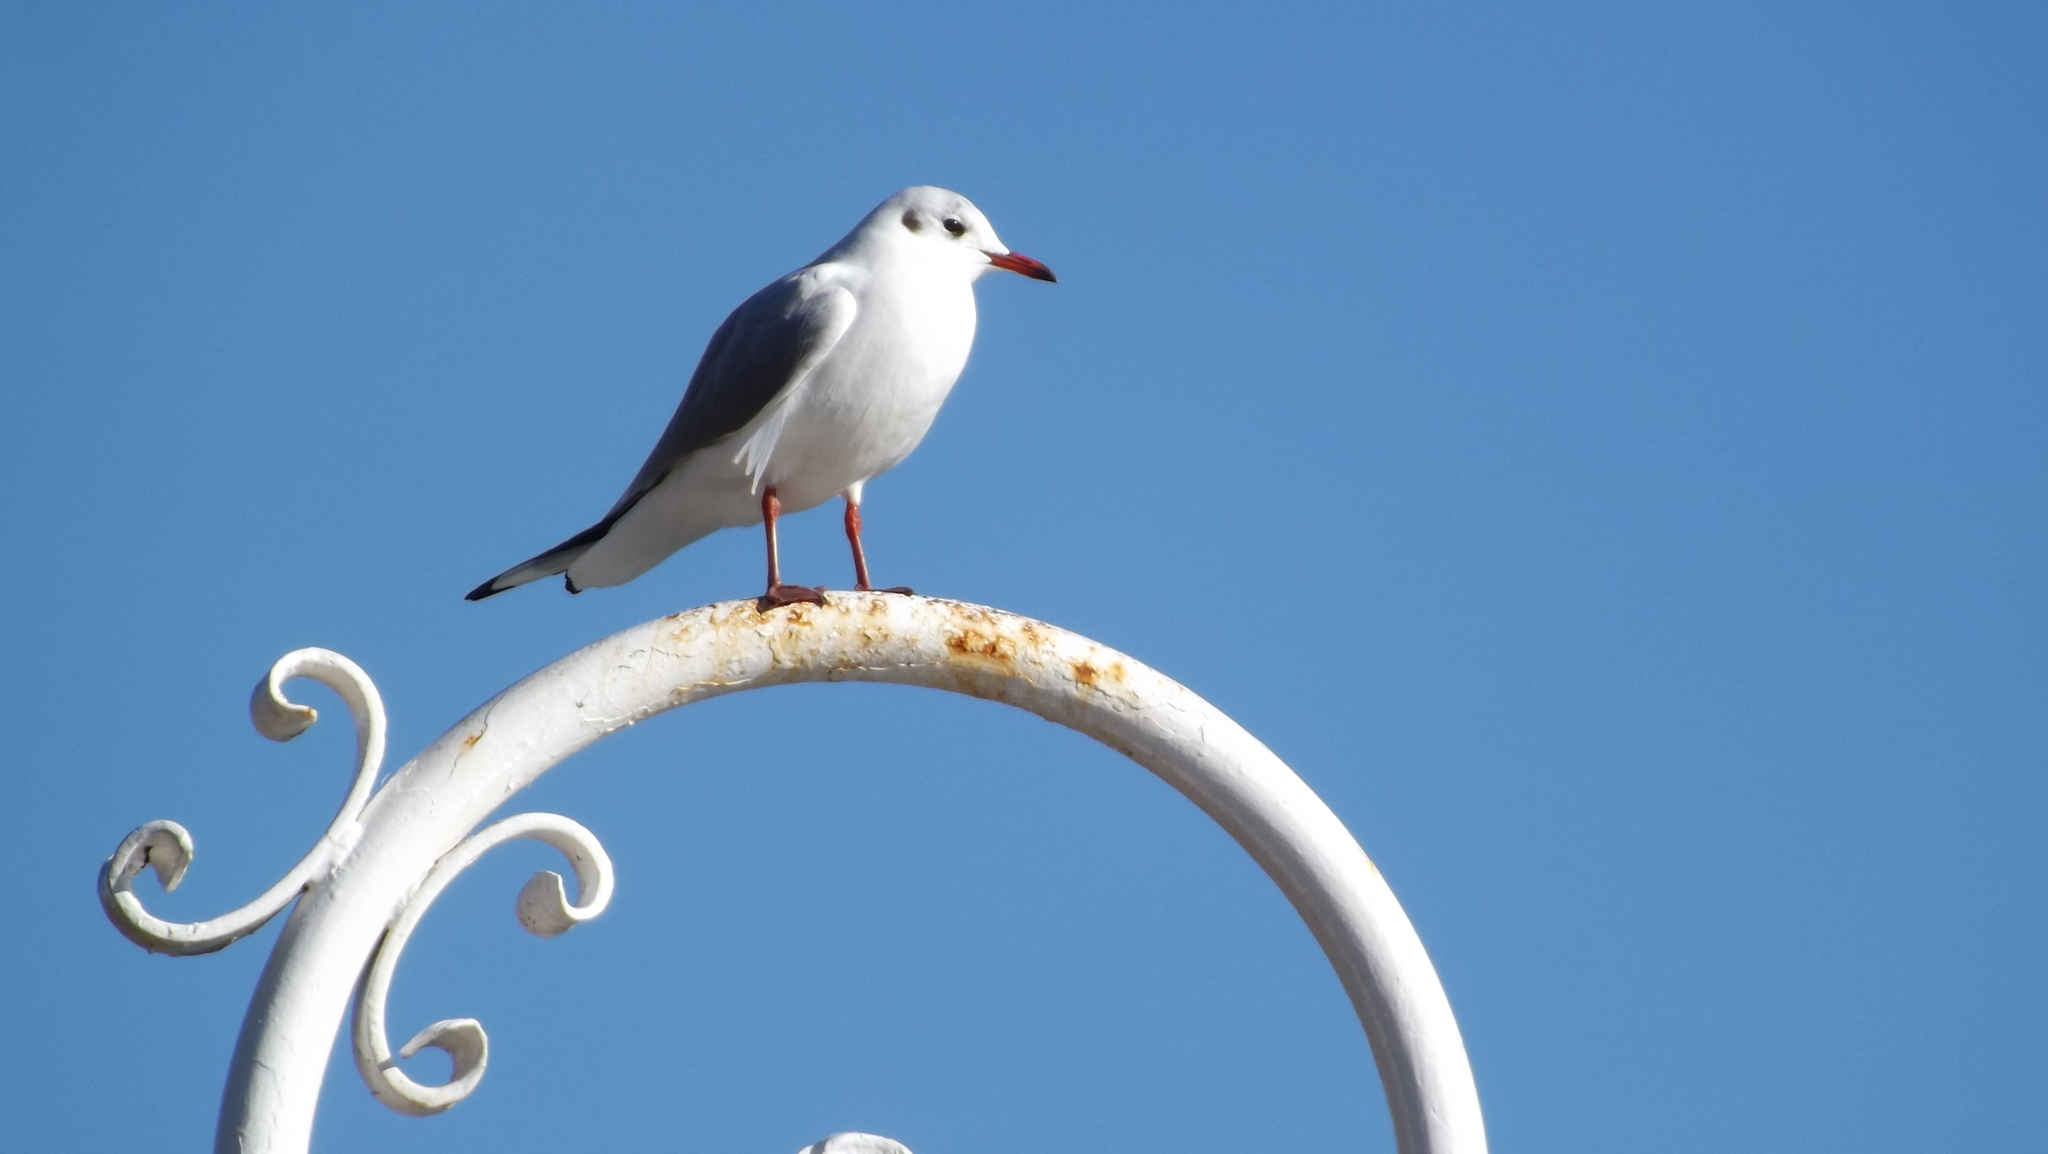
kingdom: Animalia
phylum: Chordata
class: Aves
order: Charadriiformes
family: Laridae
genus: Chroicocephalus
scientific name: Chroicocephalus ridibundus
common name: Black-headed gull
